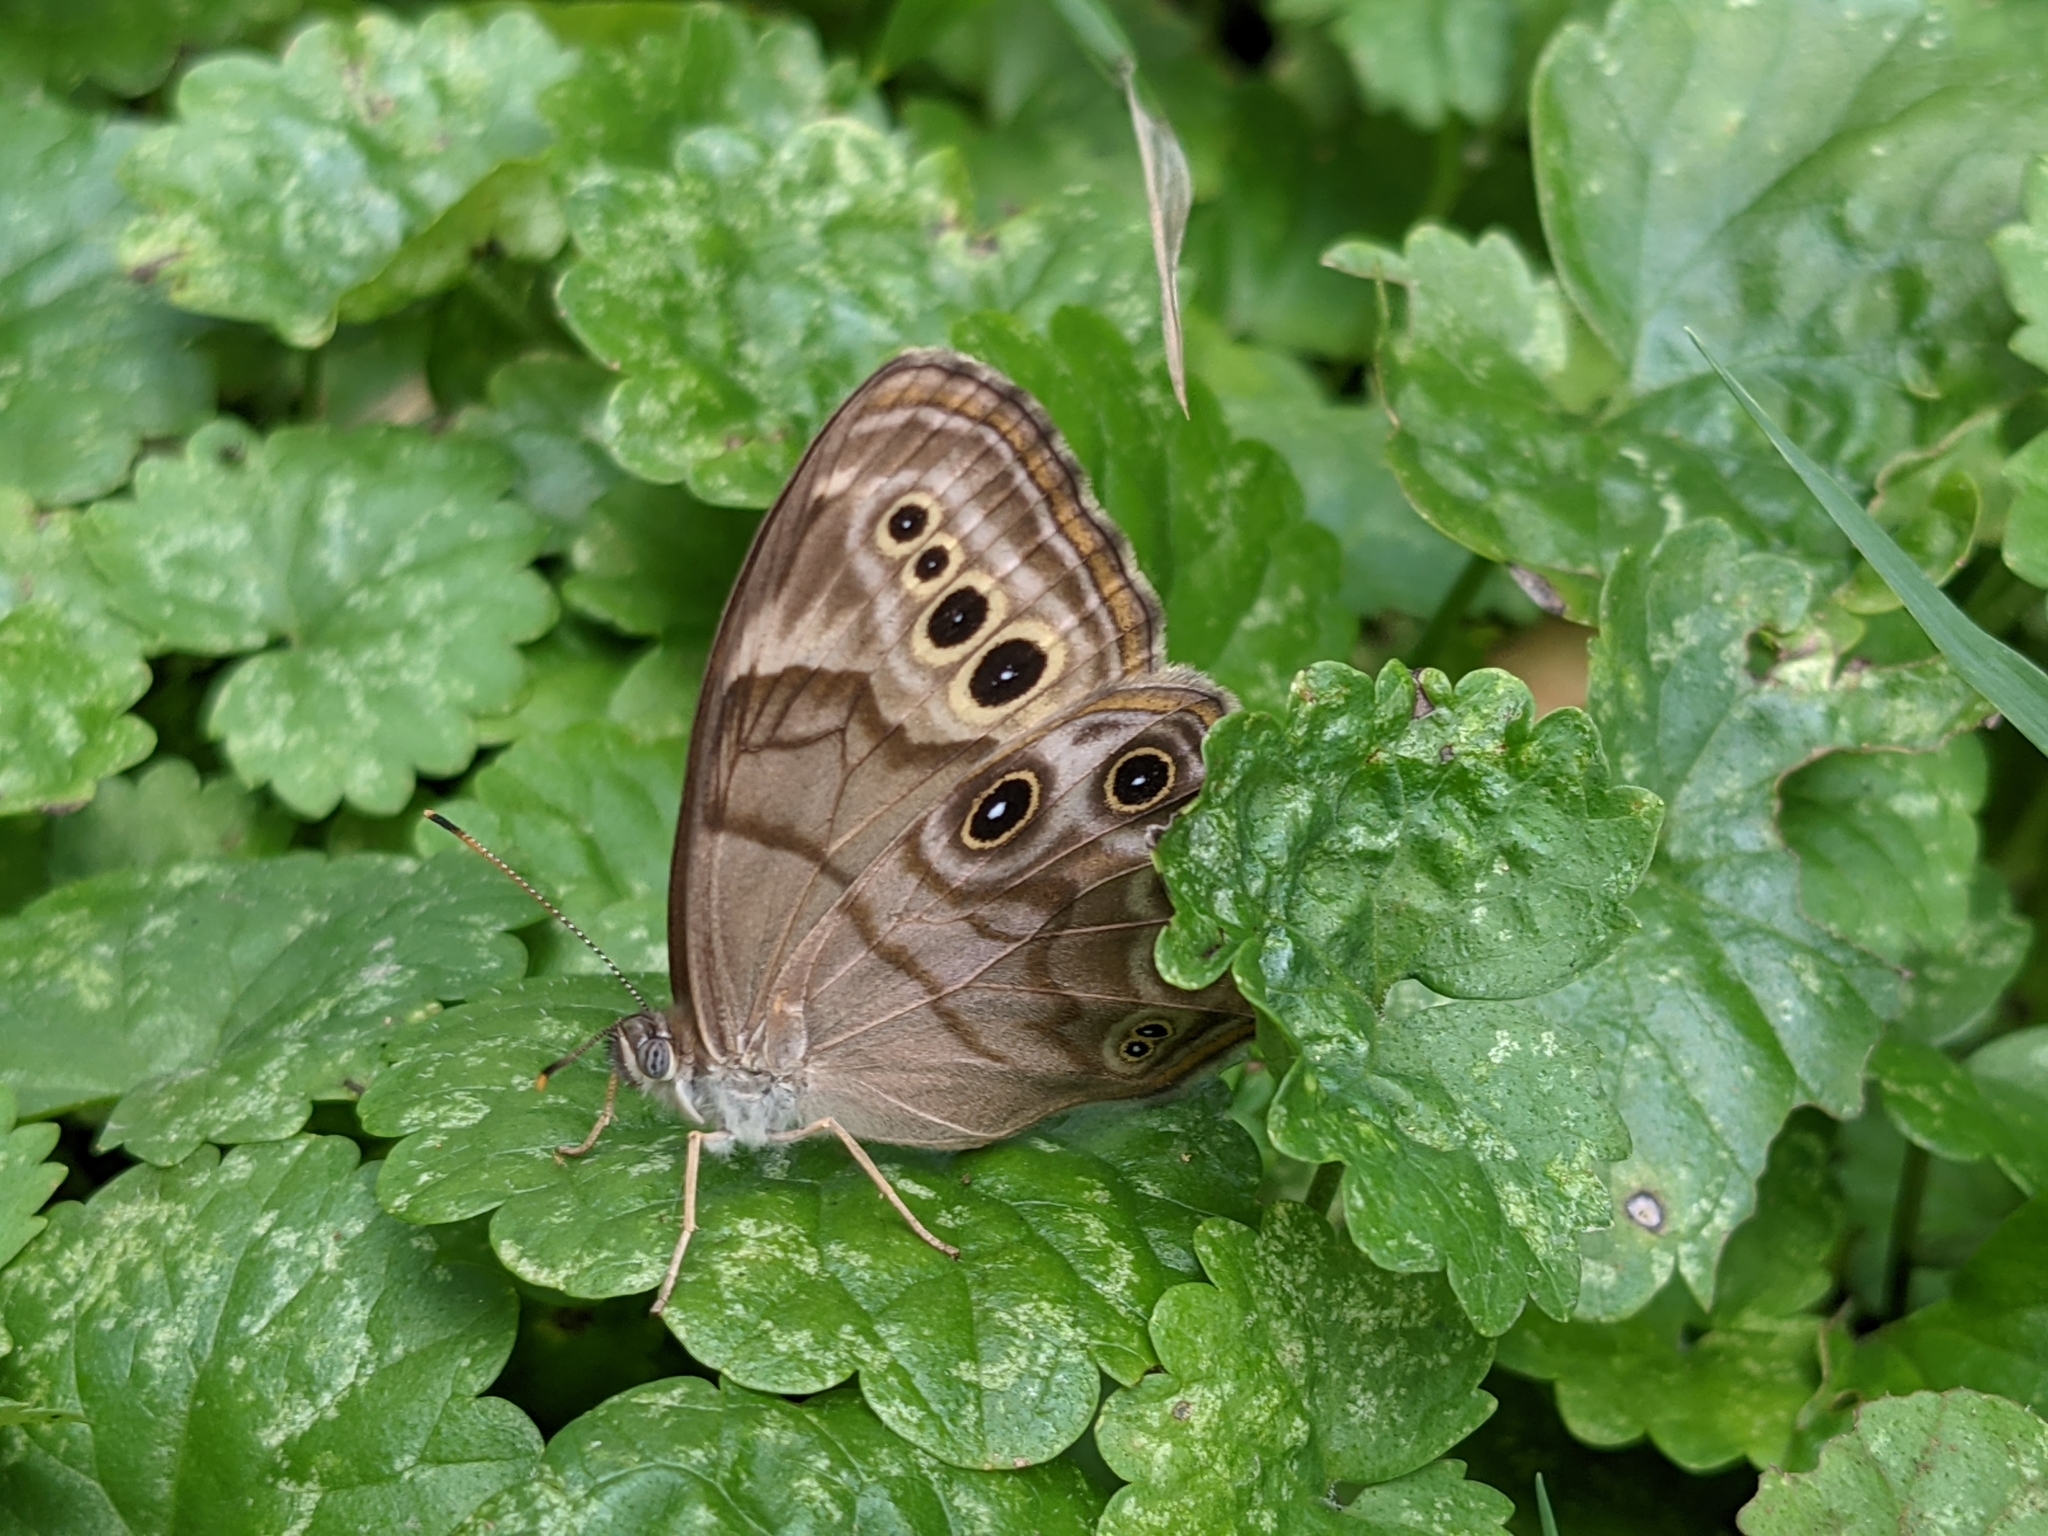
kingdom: Animalia
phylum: Arthropoda
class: Insecta
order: Lepidoptera
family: Nymphalidae
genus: Lethe
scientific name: Lethe anthedon
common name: Northern pearly-eye
